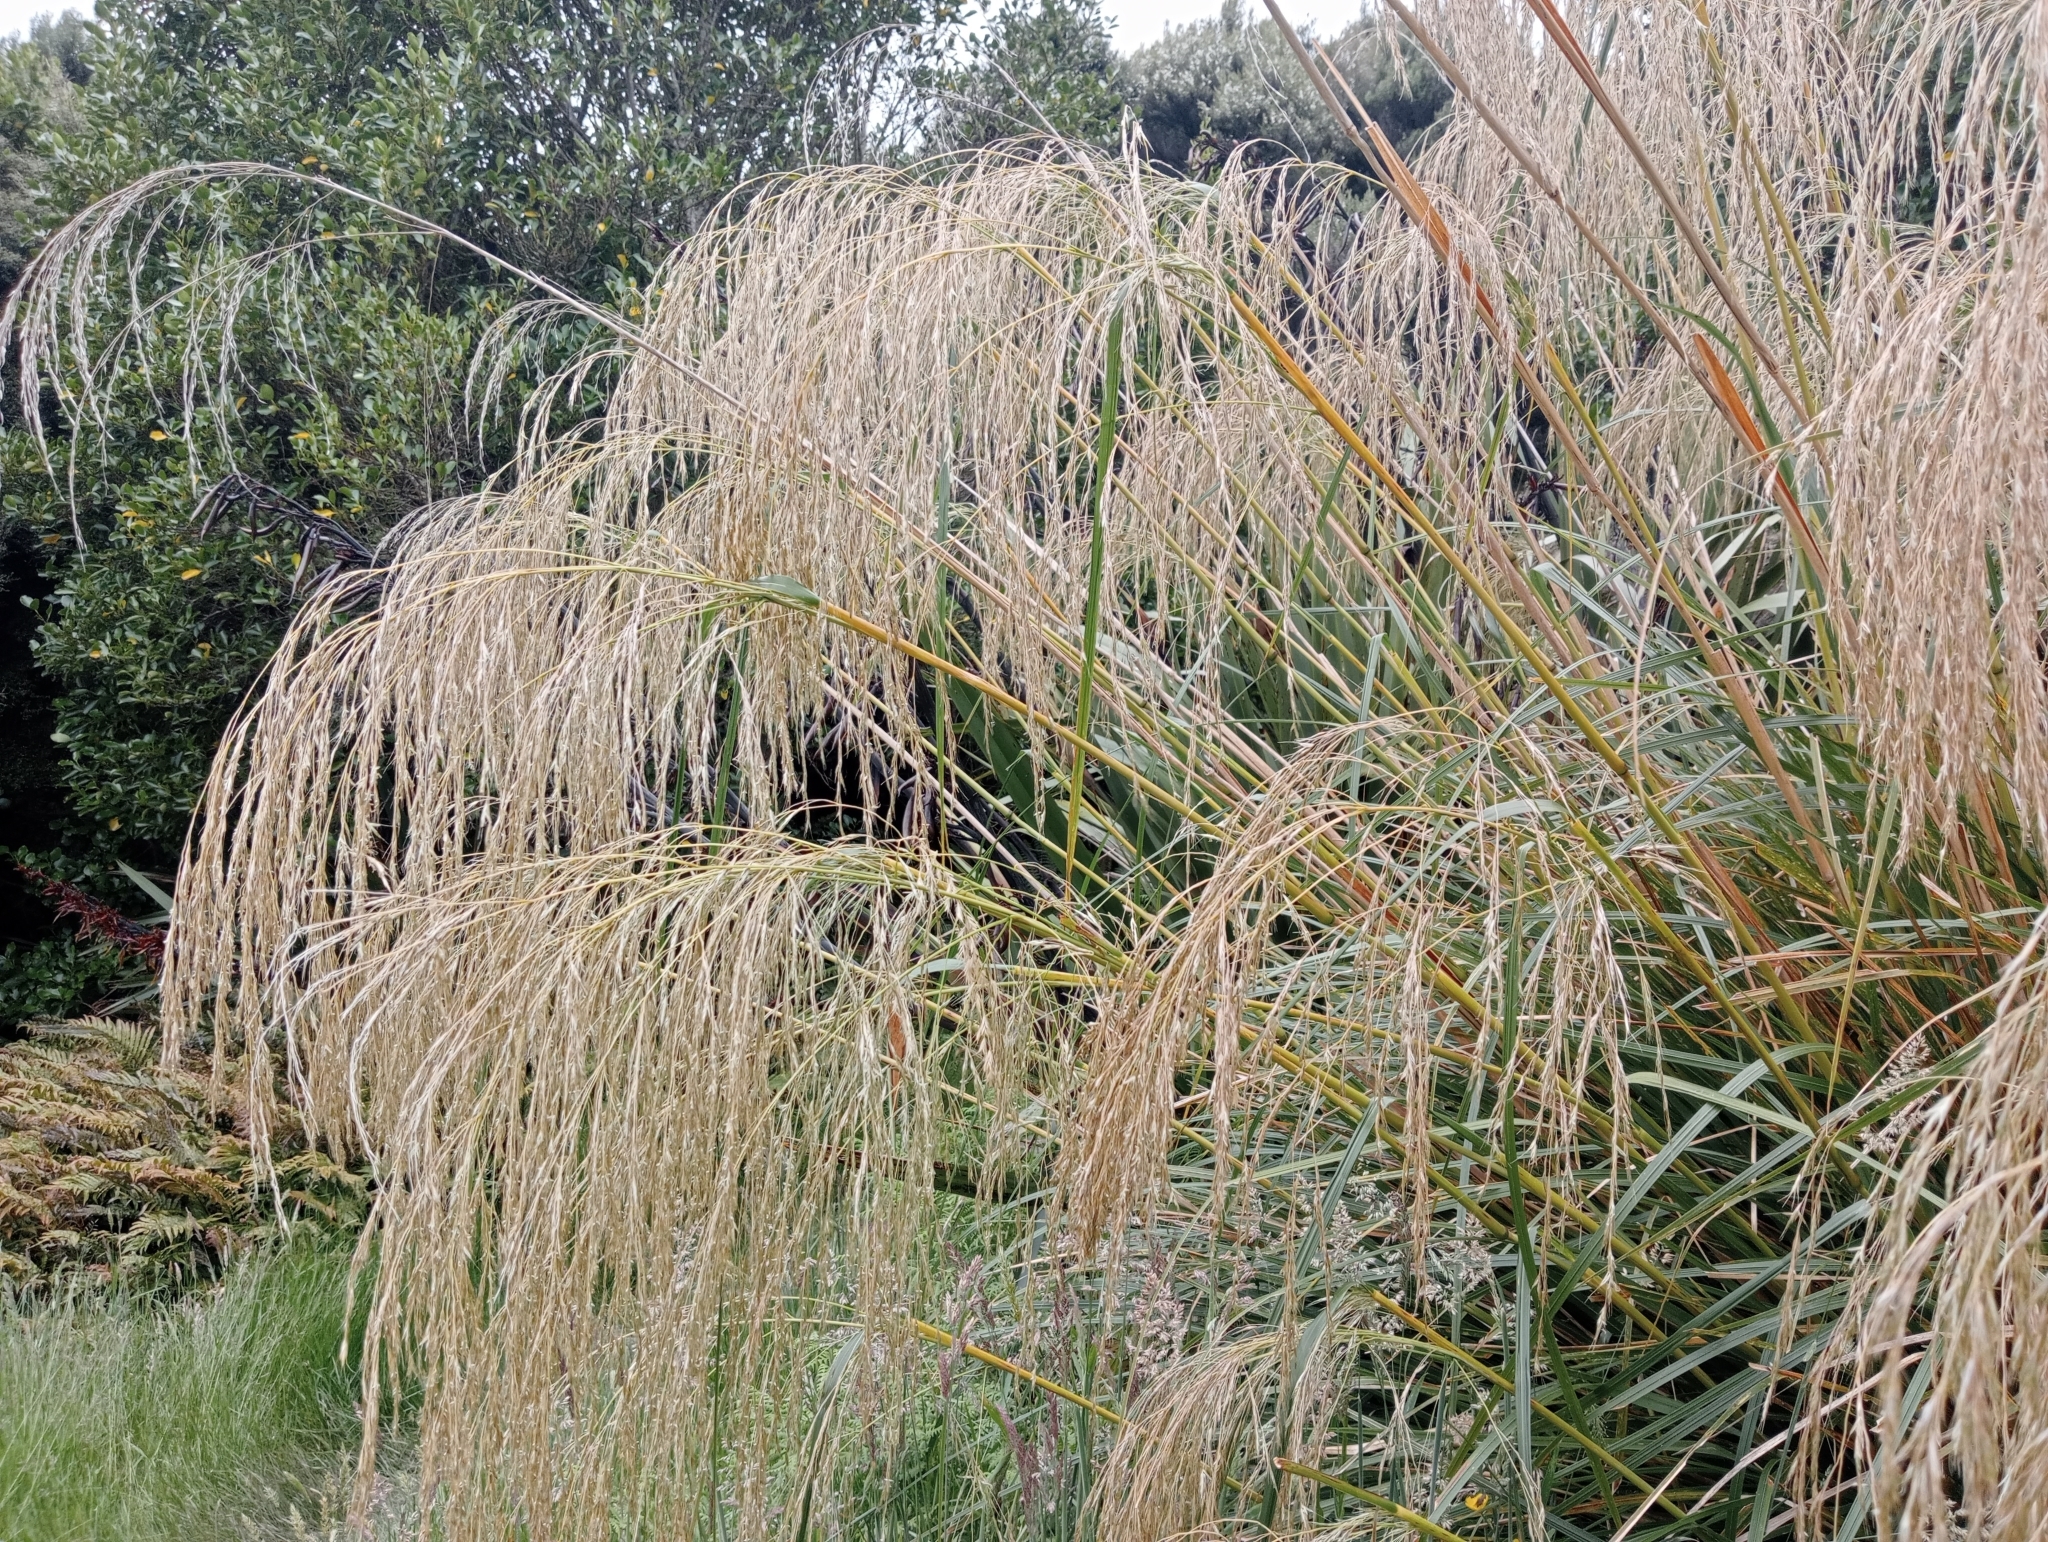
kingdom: Plantae
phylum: Tracheophyta
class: Liliopsida
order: Poales
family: Poaceae
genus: Chionochloa
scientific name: Chionochloa conspicua
